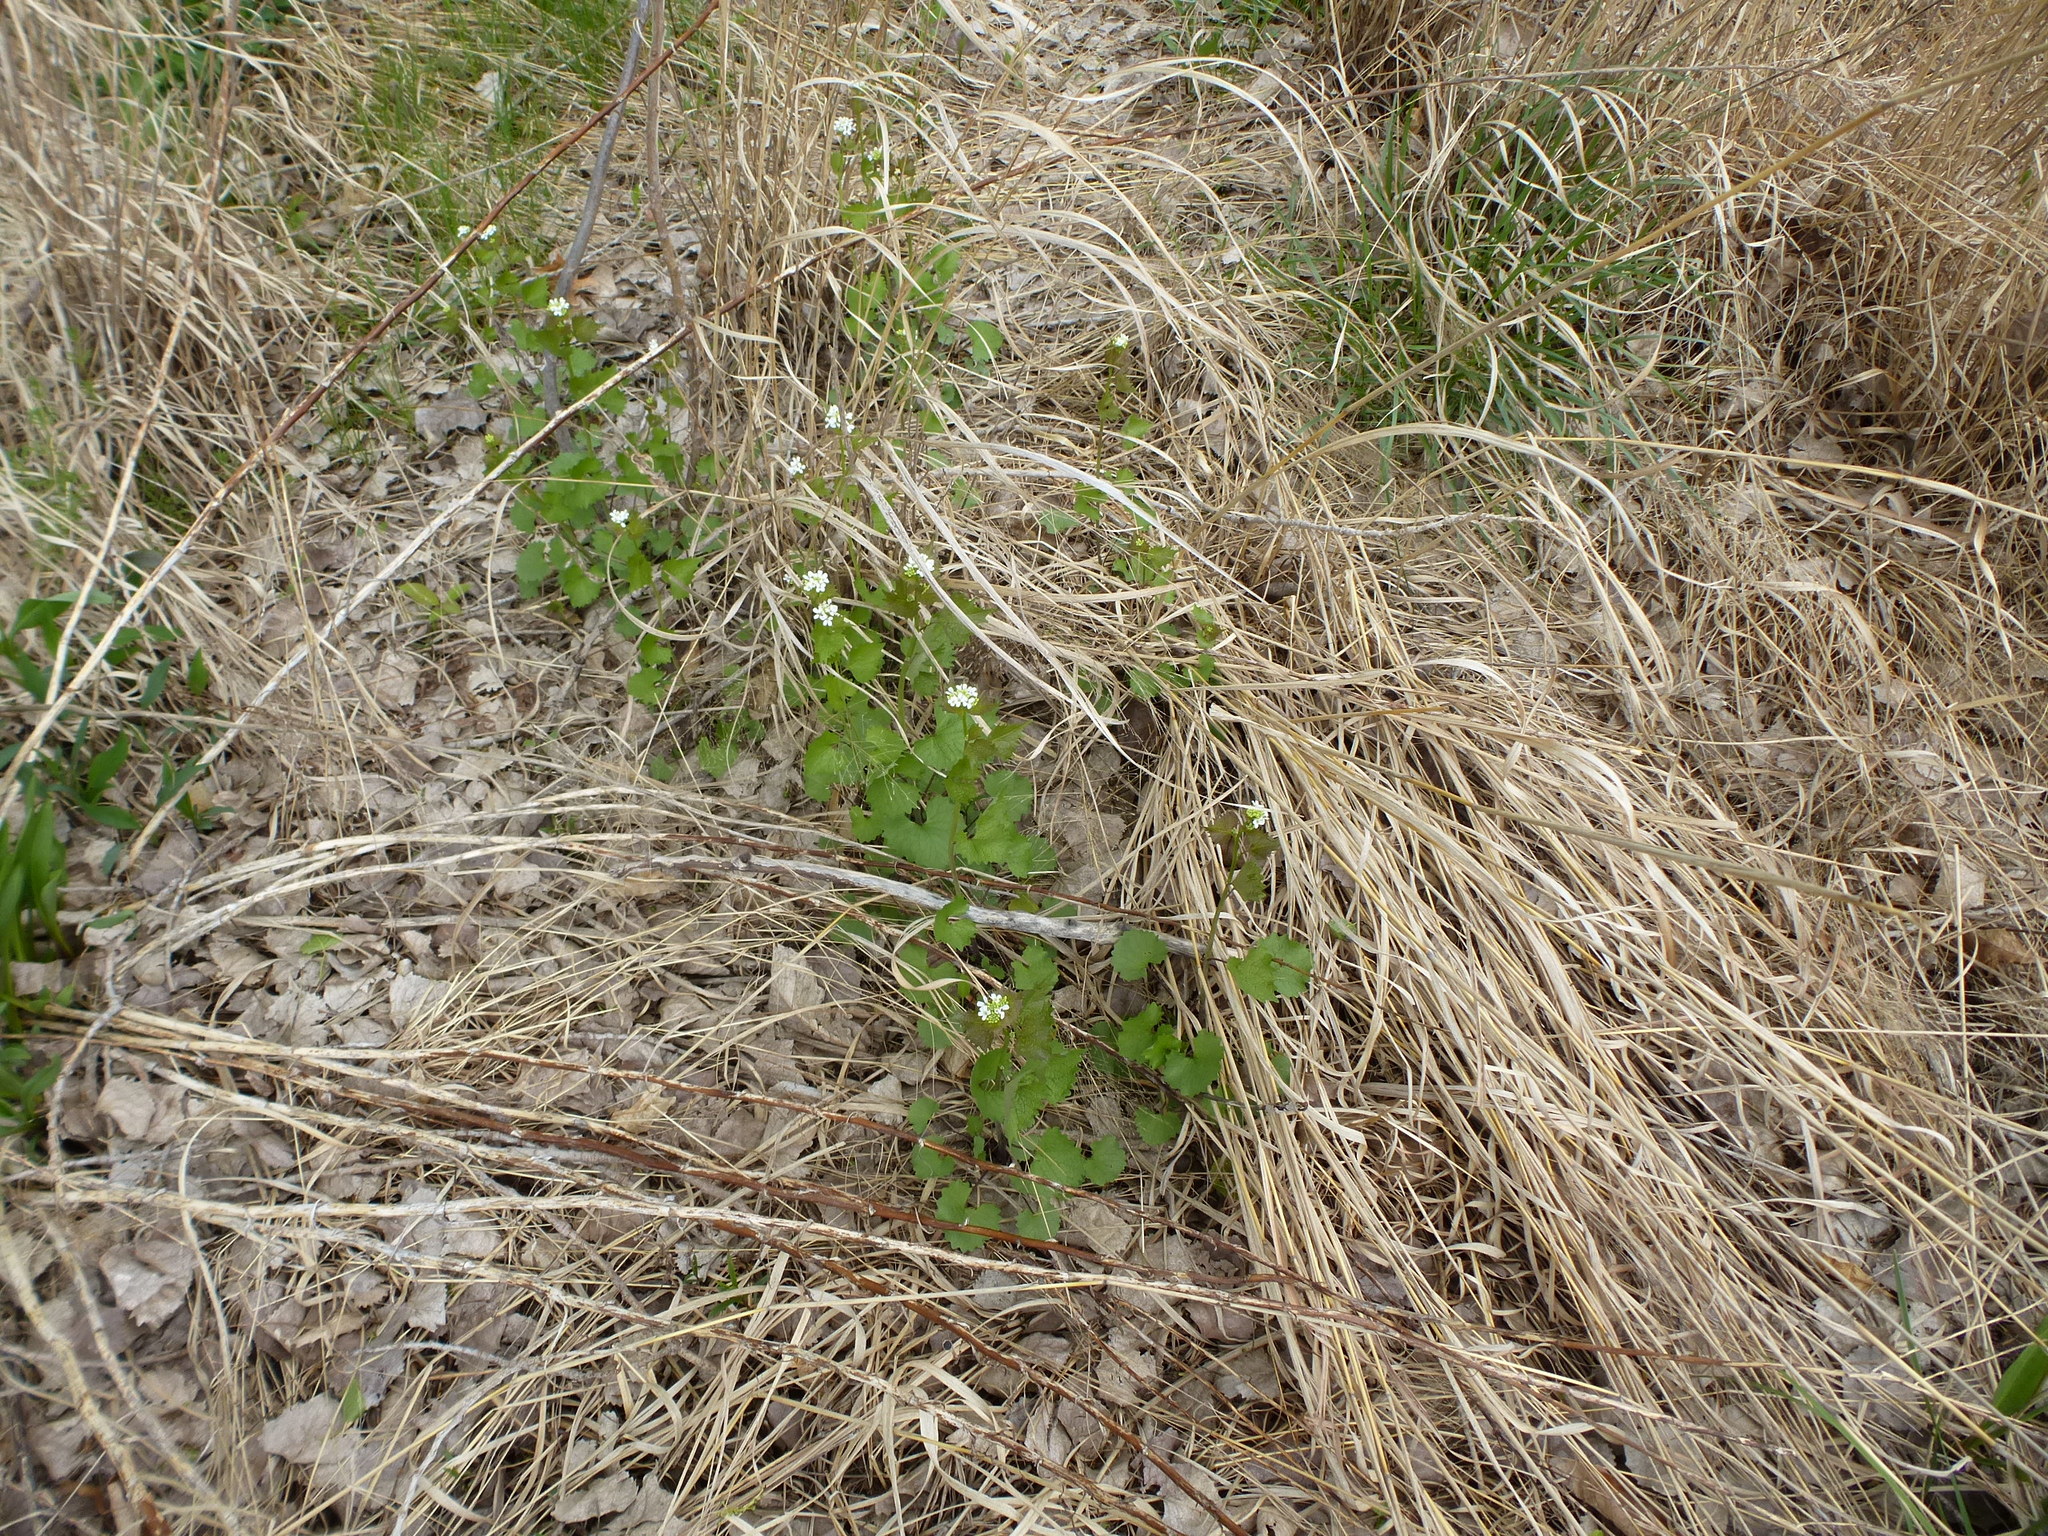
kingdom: Plantae
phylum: Tracheophyta
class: Magnoliopsida
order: Brassicales
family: Brassicaceae
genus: Alliaria
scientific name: Alliaria petiolata
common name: Garlic mustard
